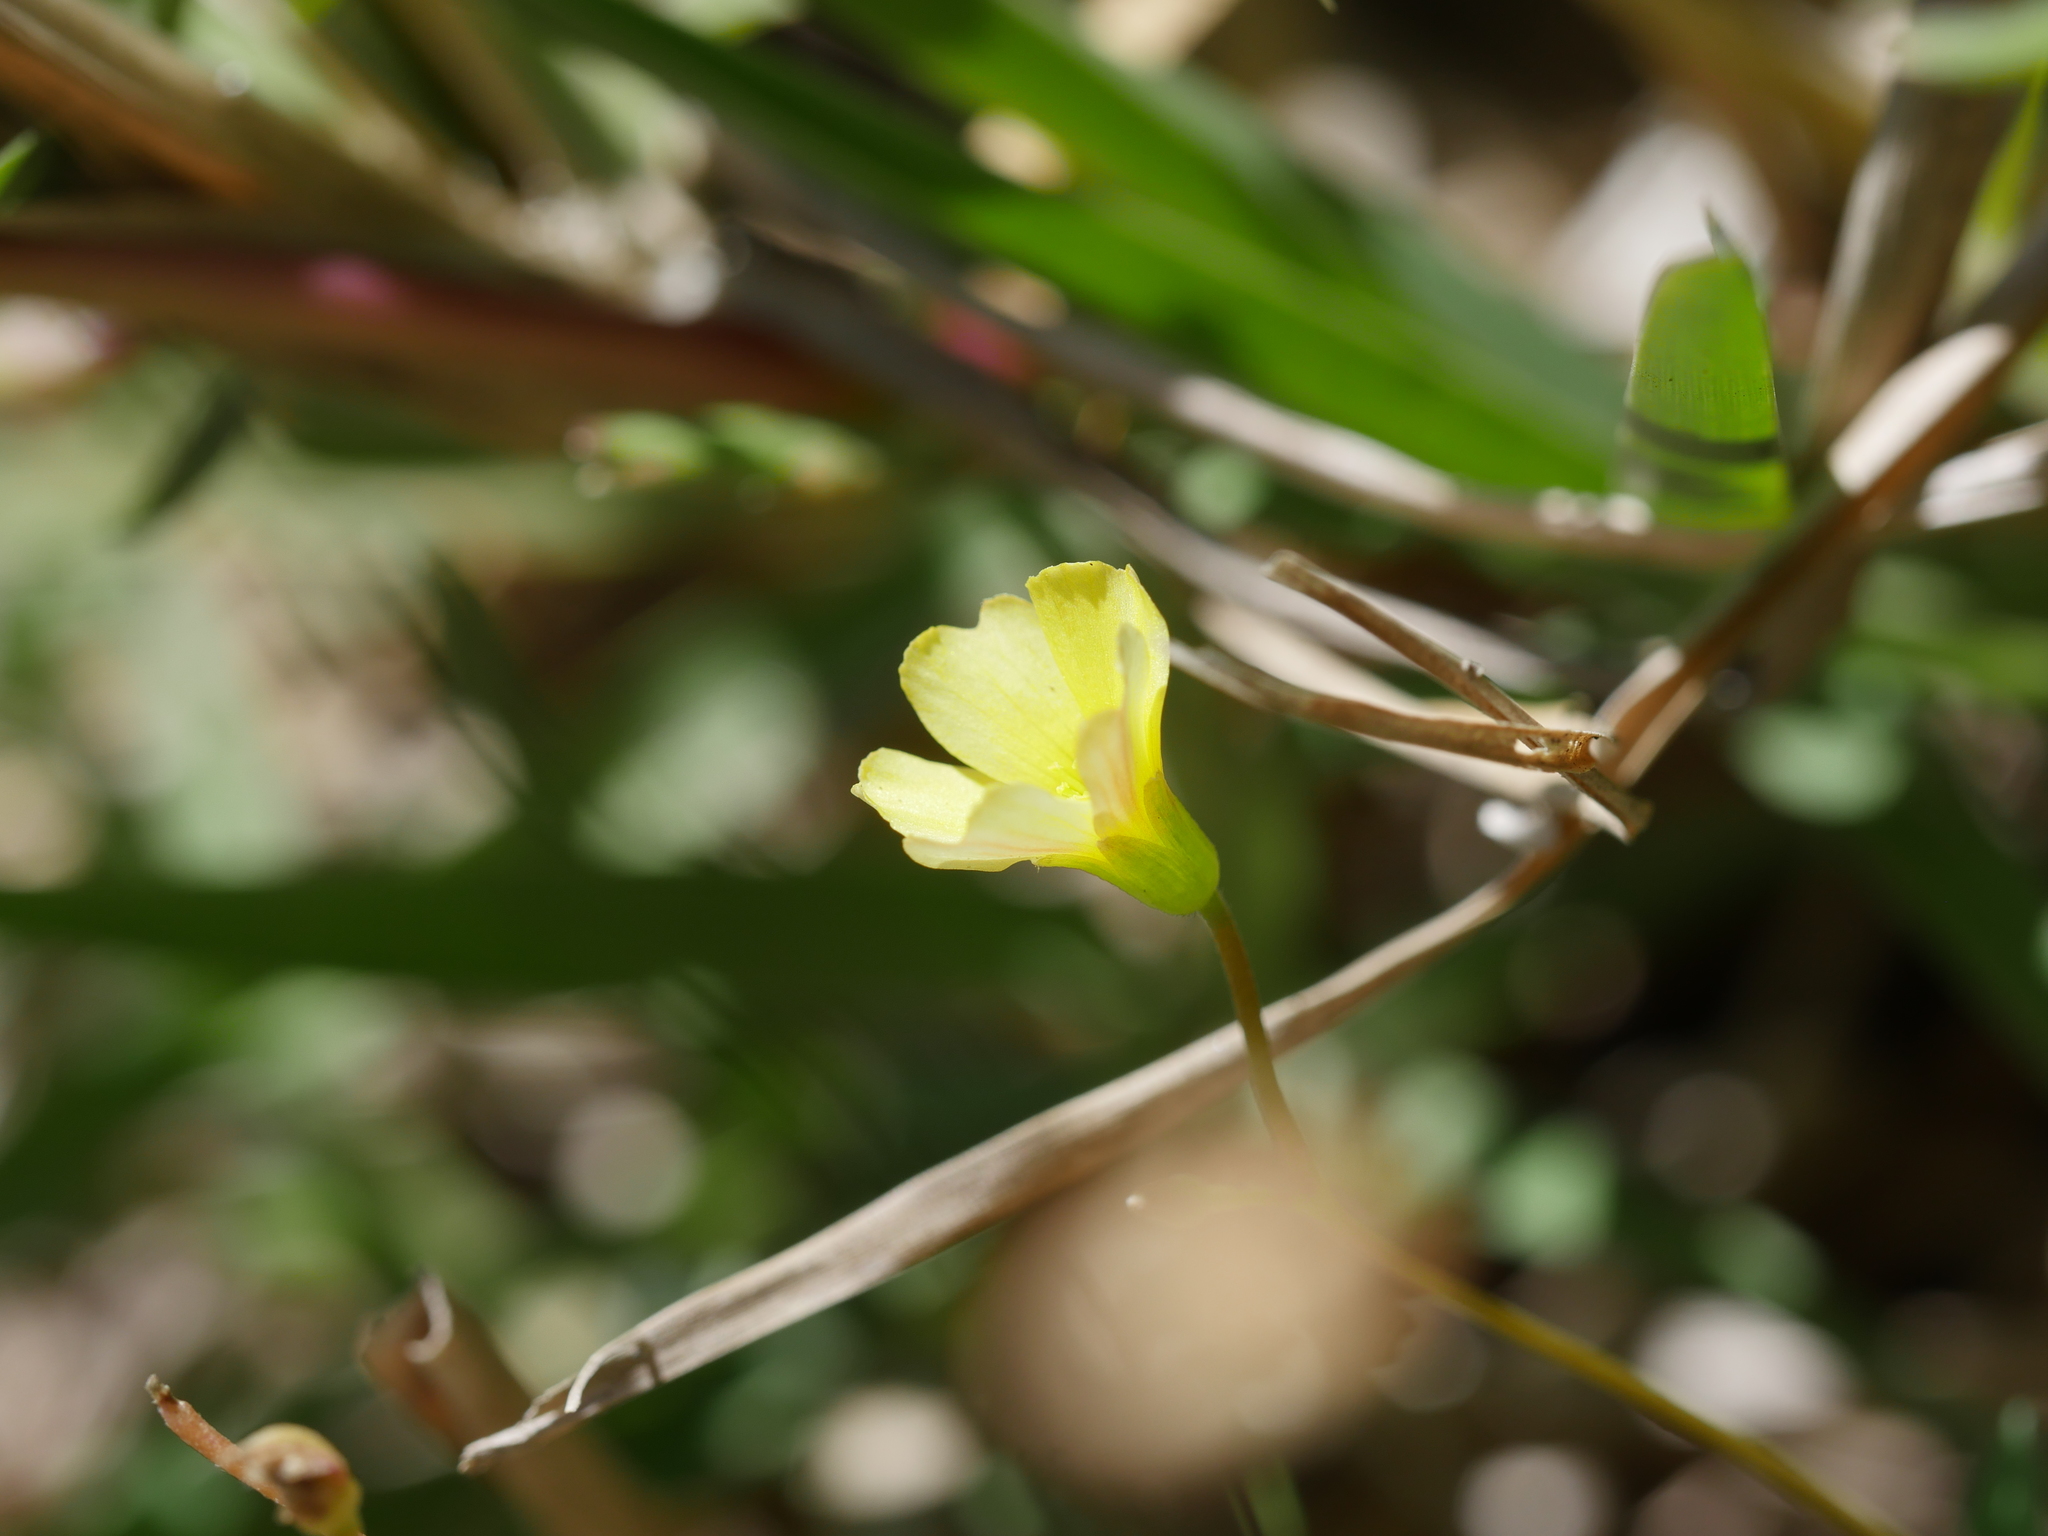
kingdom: Plantae
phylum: Tracheophyta
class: Magnoliopsida
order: Oxalidales
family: Oxalidaceae
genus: Oxalis
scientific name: Oxalis rubens
